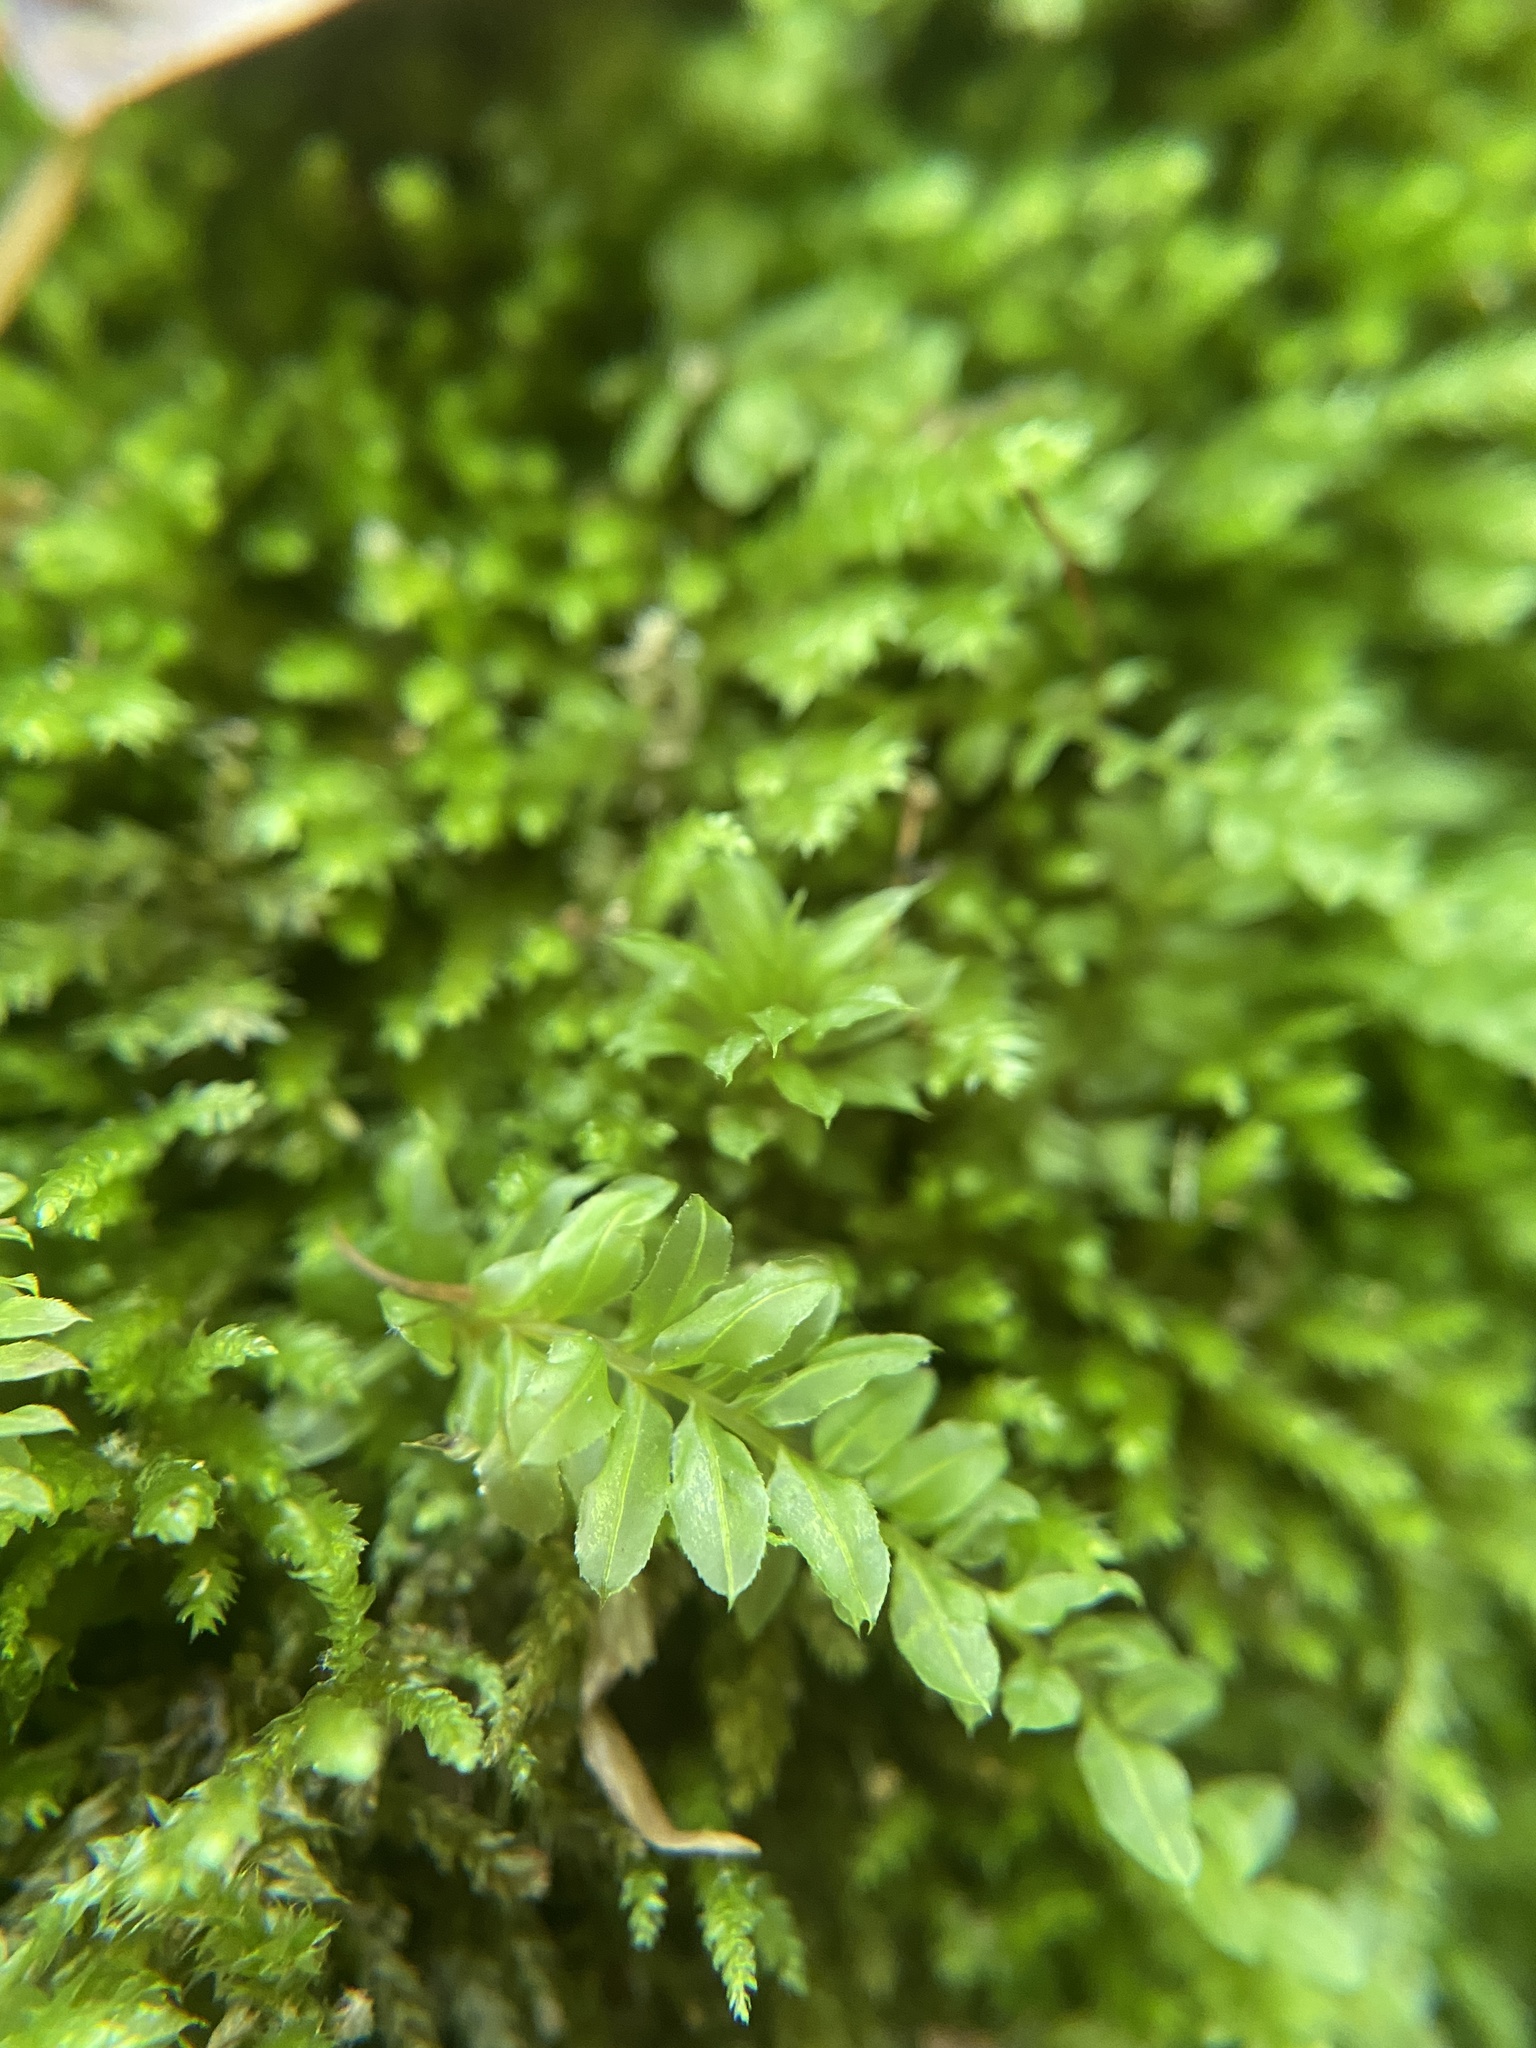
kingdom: Plantae
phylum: Bryophyta
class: Bryopsida
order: Bryales
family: Mniaceae
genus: Plagiomnium
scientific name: Plagiomnium ciliare
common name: Toothed leafy moss
